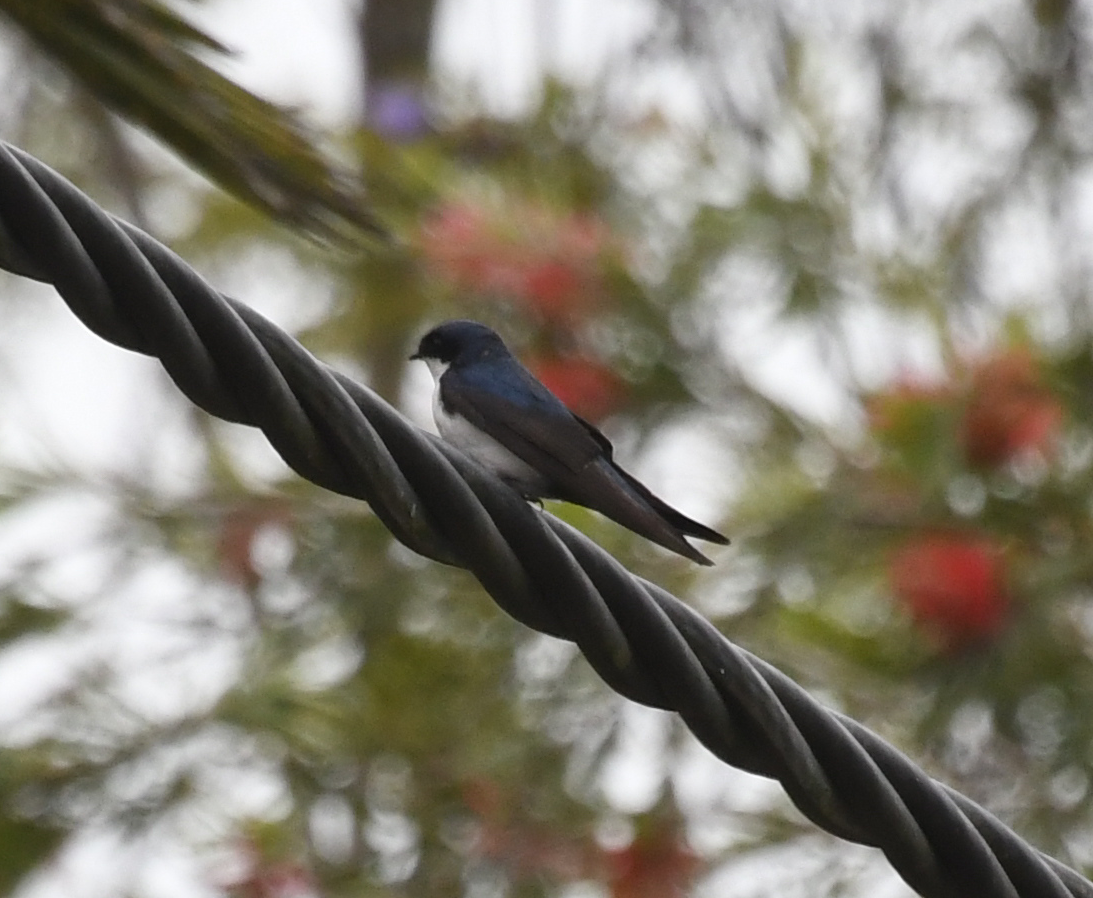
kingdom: Animalia
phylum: Chordata
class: Aves
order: Passeriformes
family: Hirundinidae
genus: Notiochelidon
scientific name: Notiochelidon cyanoleuca
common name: Blue-and-white swallow
